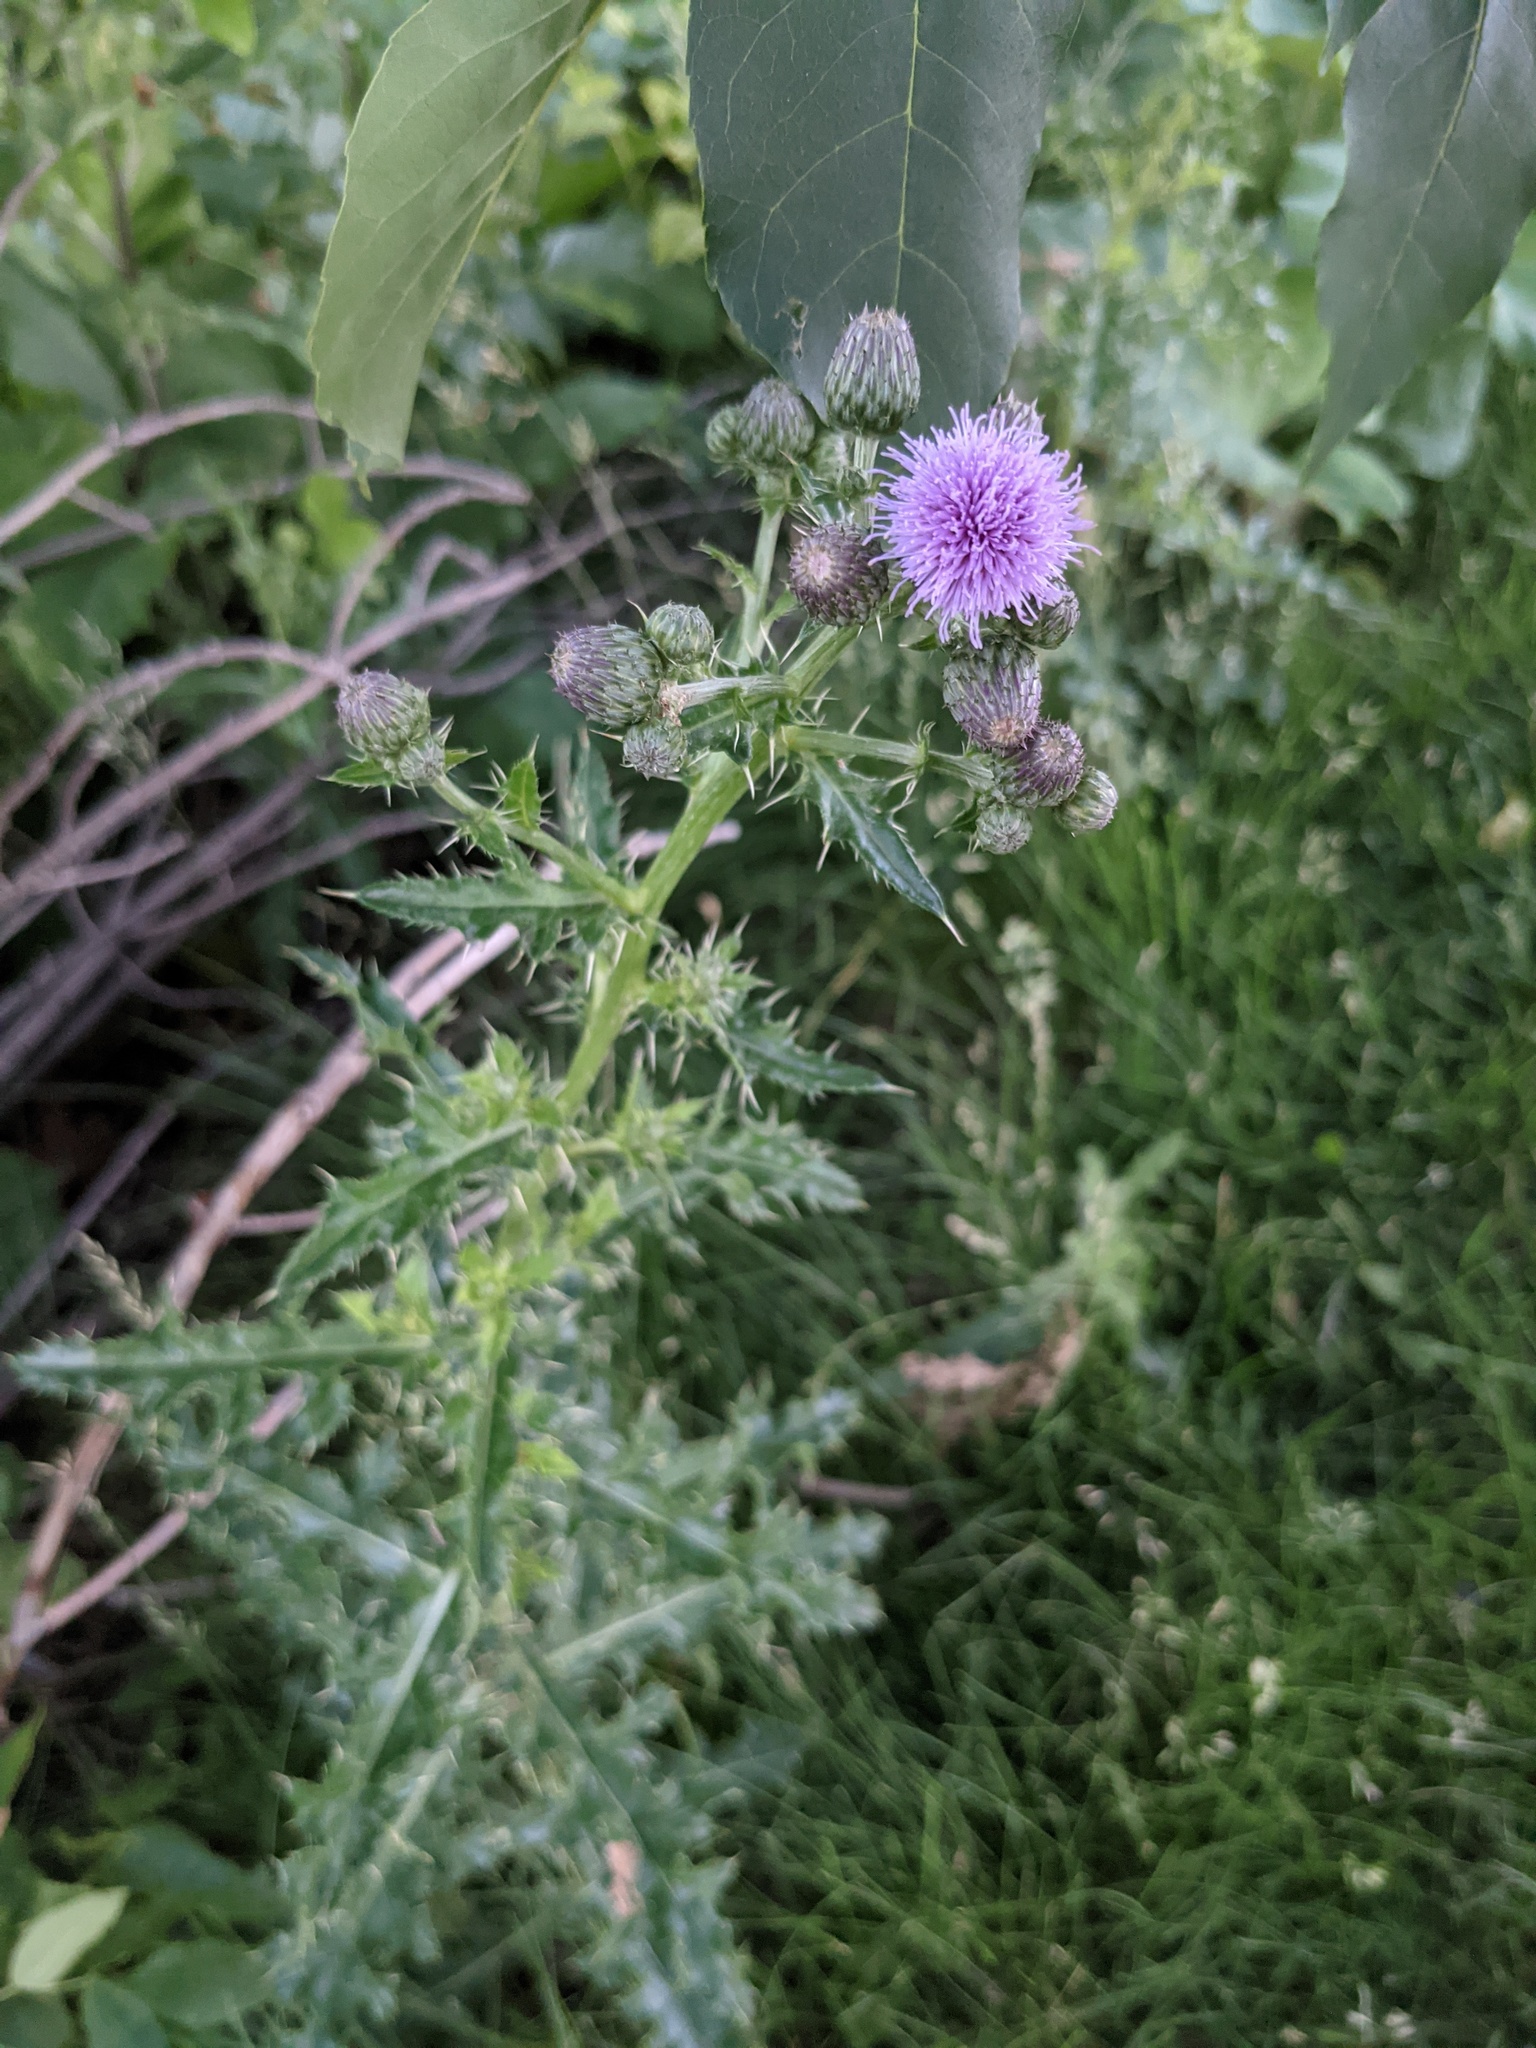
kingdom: Plantae
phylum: Tracheophyta
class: Magnoliopsida
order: Asterales
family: Asteraceae
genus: Cirsium
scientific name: Cirsium arvense
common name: Creeping thistle
